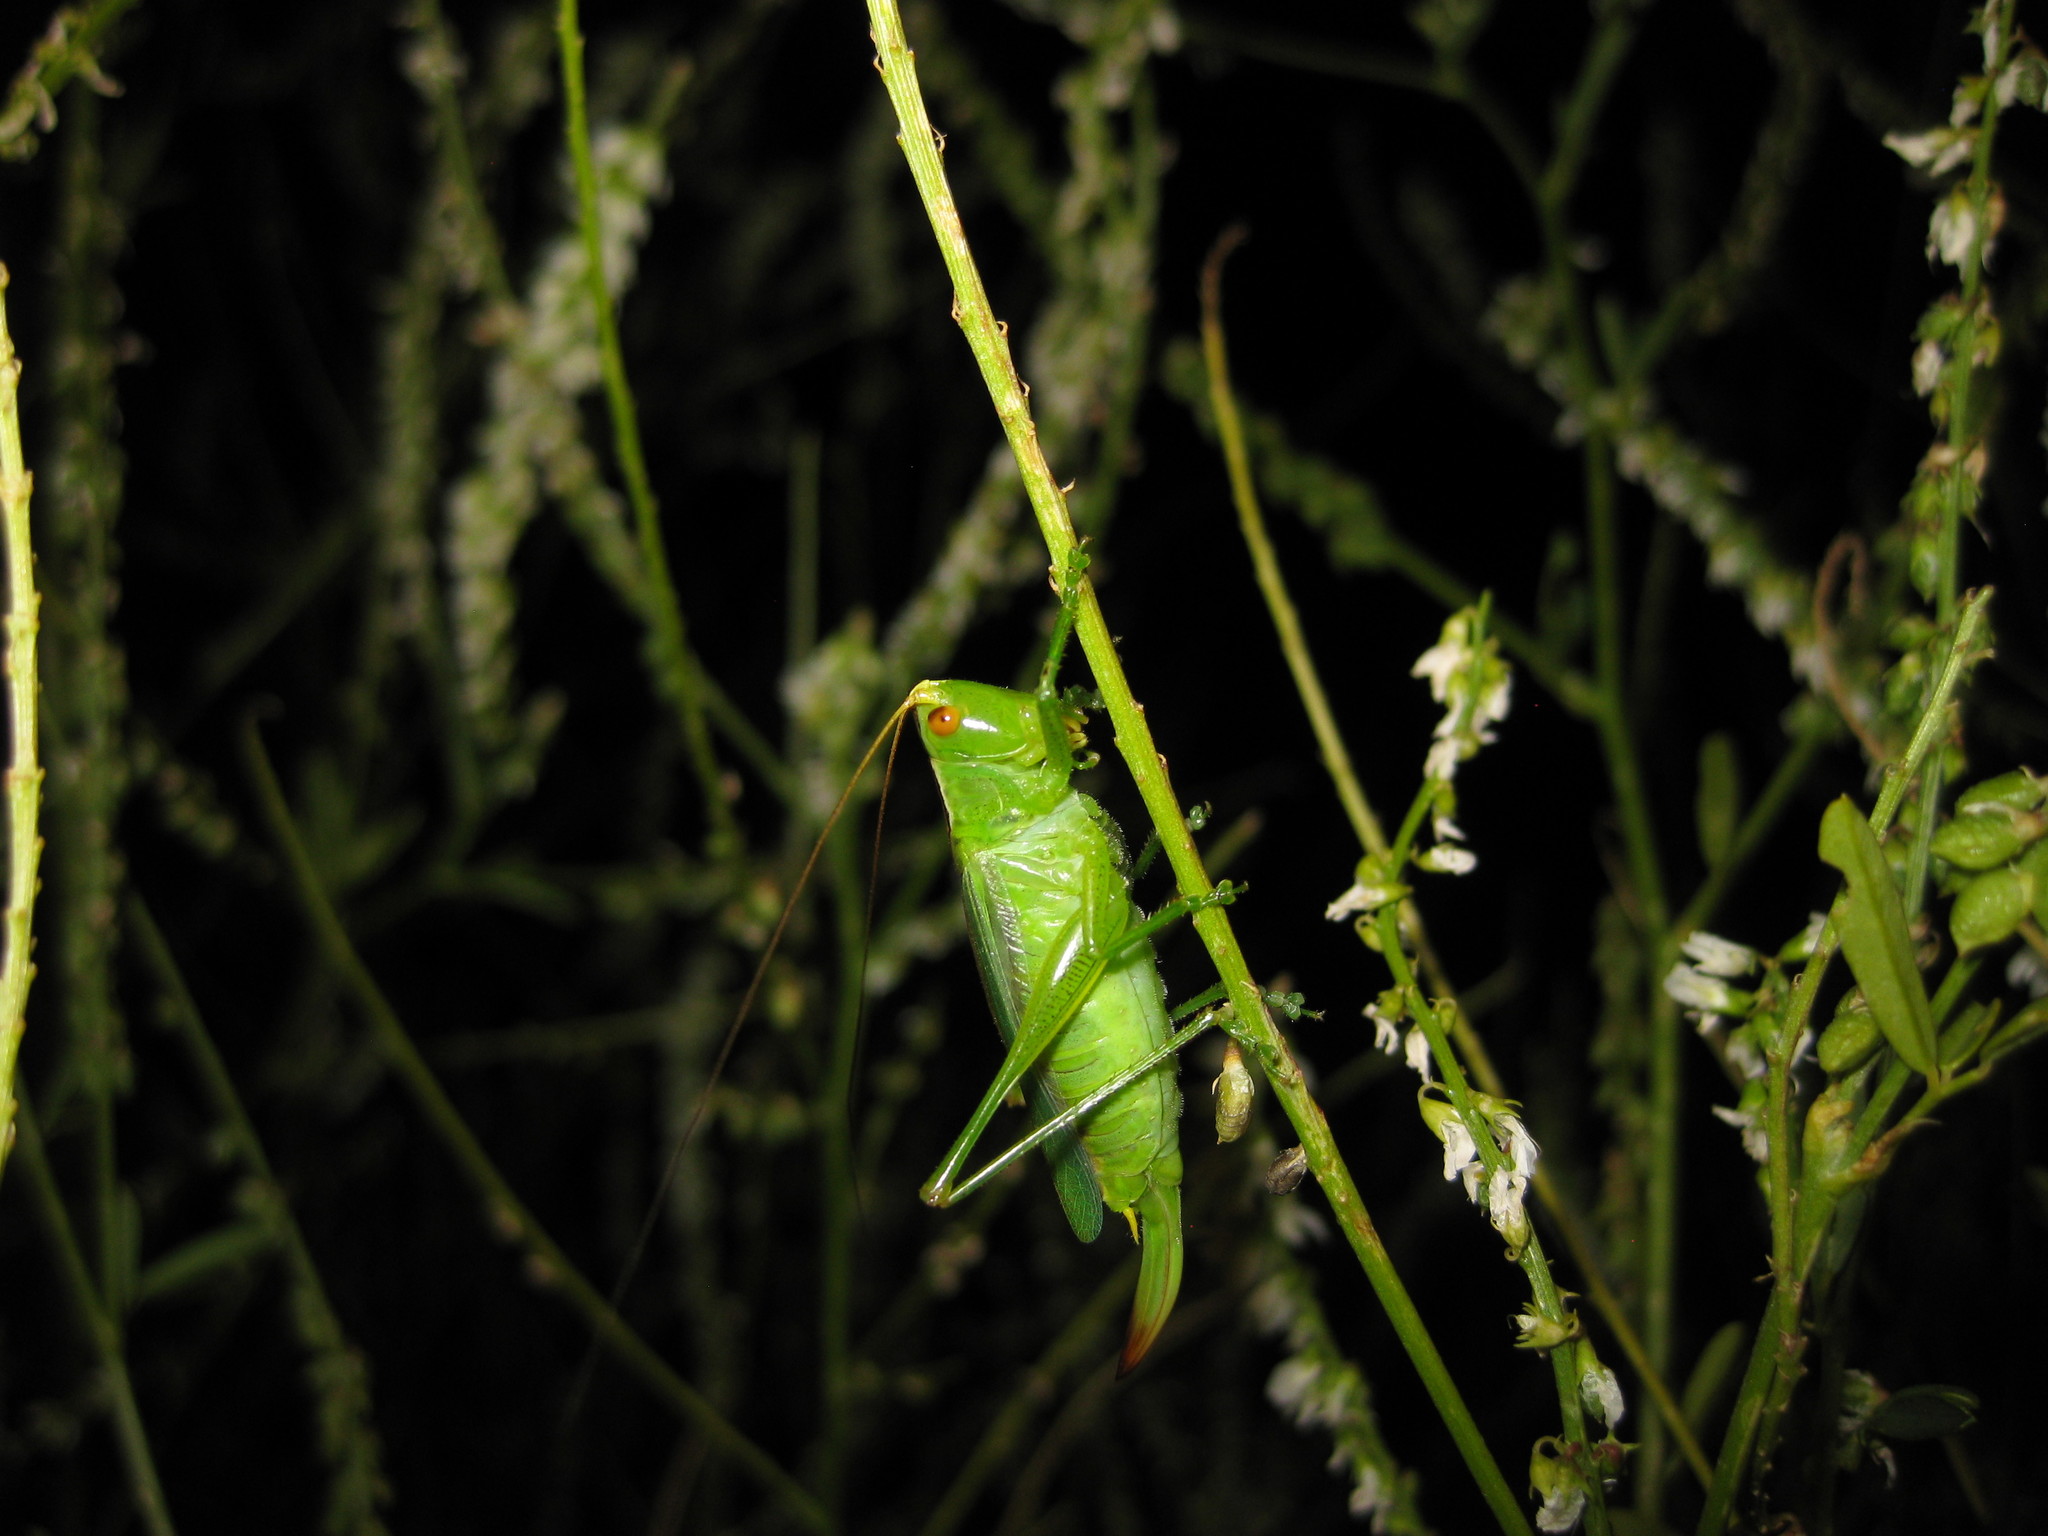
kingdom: Animalia
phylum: Arthropoda
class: Insecta
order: Orthoptera
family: Tettigoniidae
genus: Orchelimum
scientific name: Orchelimum gladiator
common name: Gladiator meadow katydid
